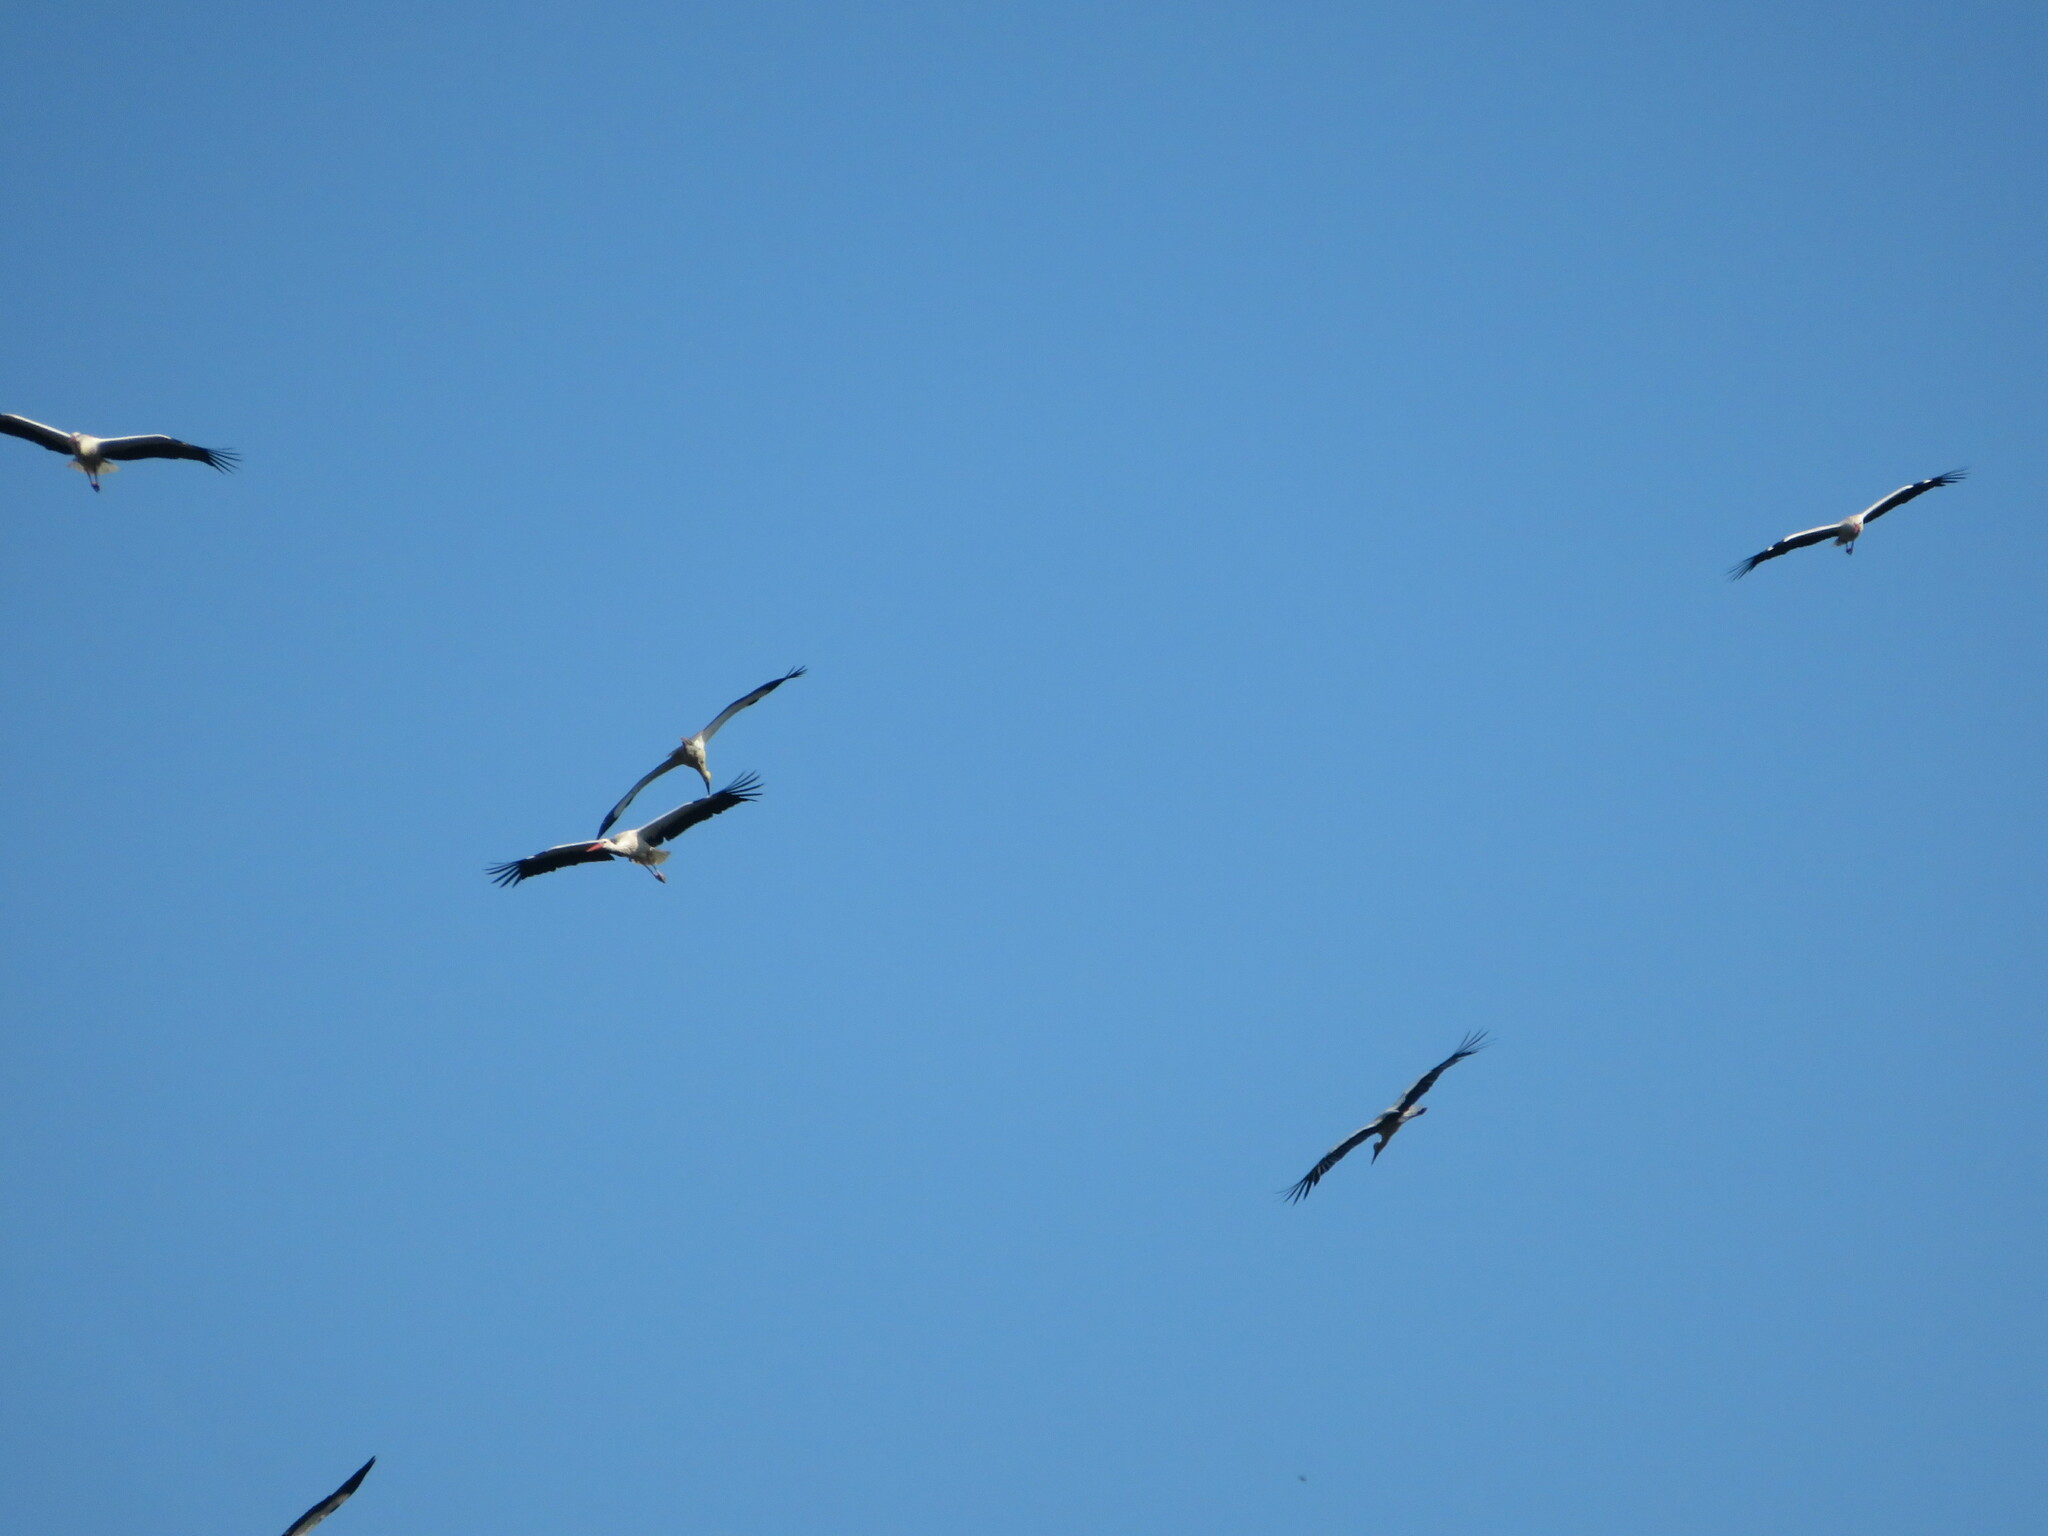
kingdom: Animalia
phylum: Chordata
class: Aves
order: Ciconiiformes
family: Ciconiidae
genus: Ciconia
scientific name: Ciconia ciconia
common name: White stork
